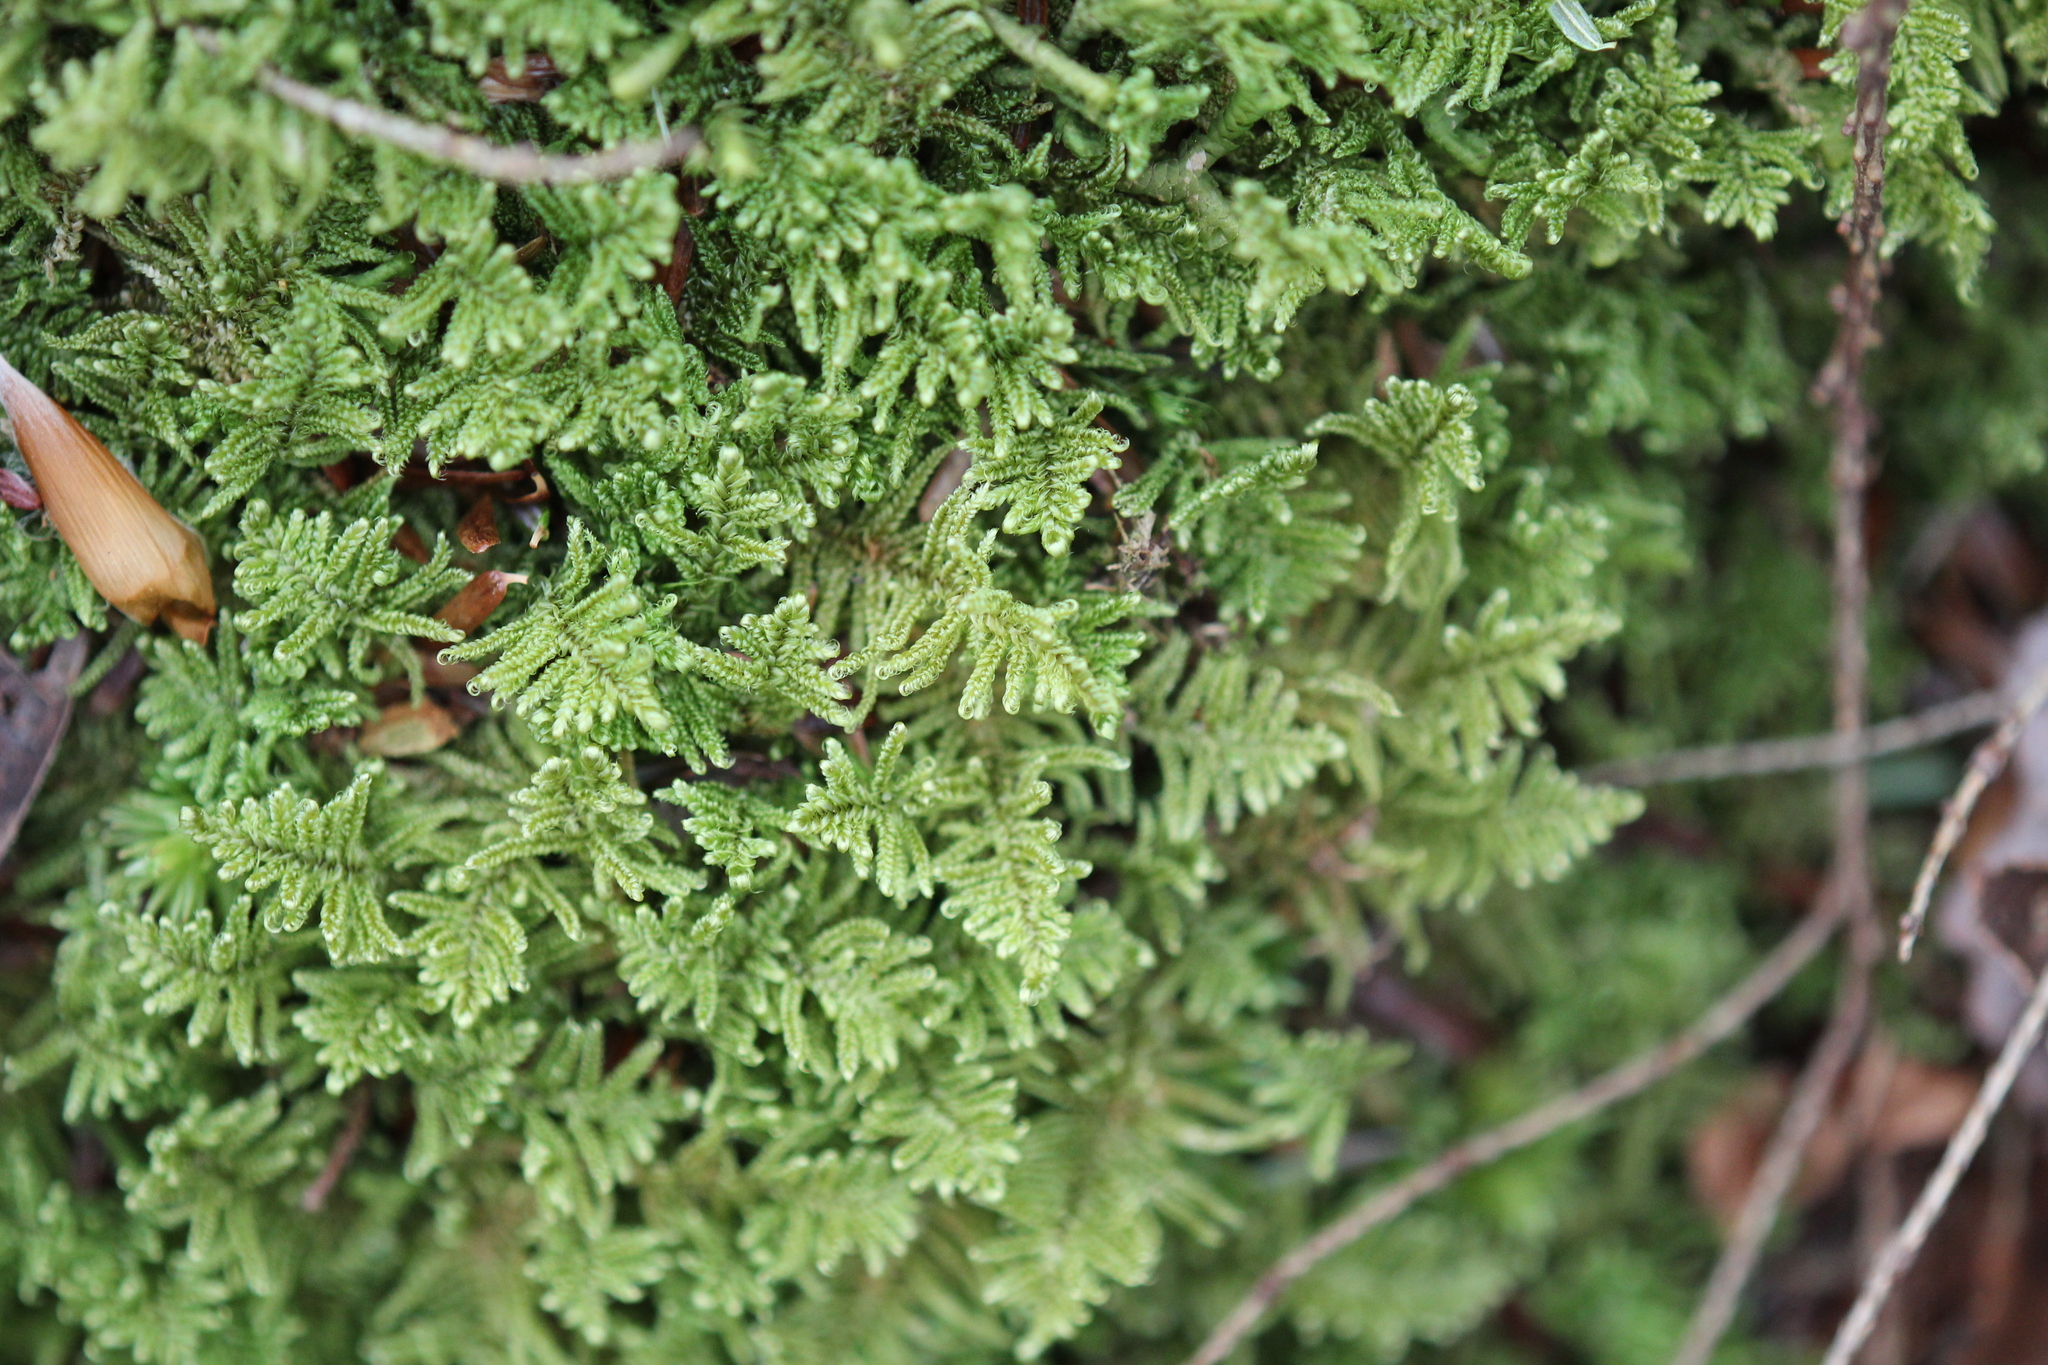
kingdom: Plantae
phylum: Bryophyta
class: Bryopsida
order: Hypnales
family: Callicladiaceae
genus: Callicladium
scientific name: Callicladium imponens
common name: Brocade moss
